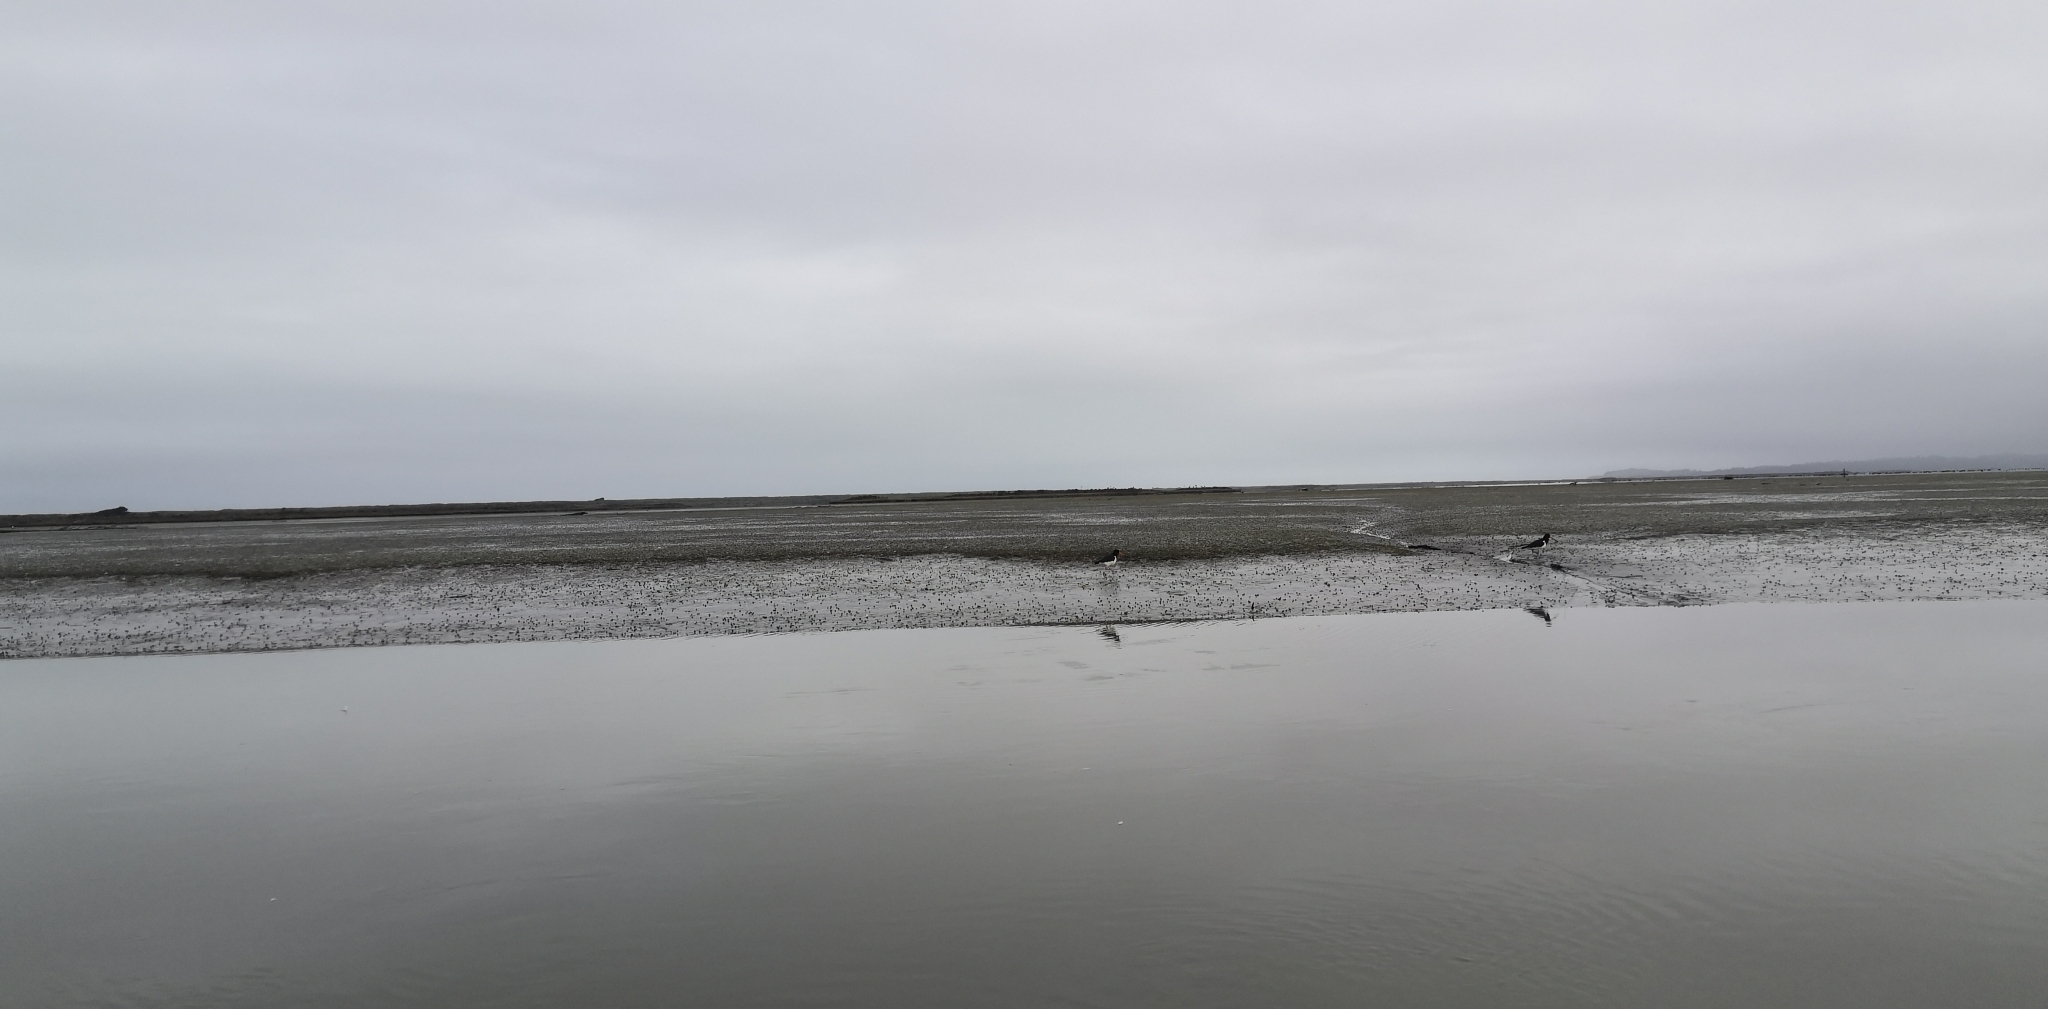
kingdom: Animalia
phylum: Chordata
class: Aves
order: Charadriiformes
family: Haematopodidae
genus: Haematopus
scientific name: Haematopus finschi
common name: South island oystercatcher
